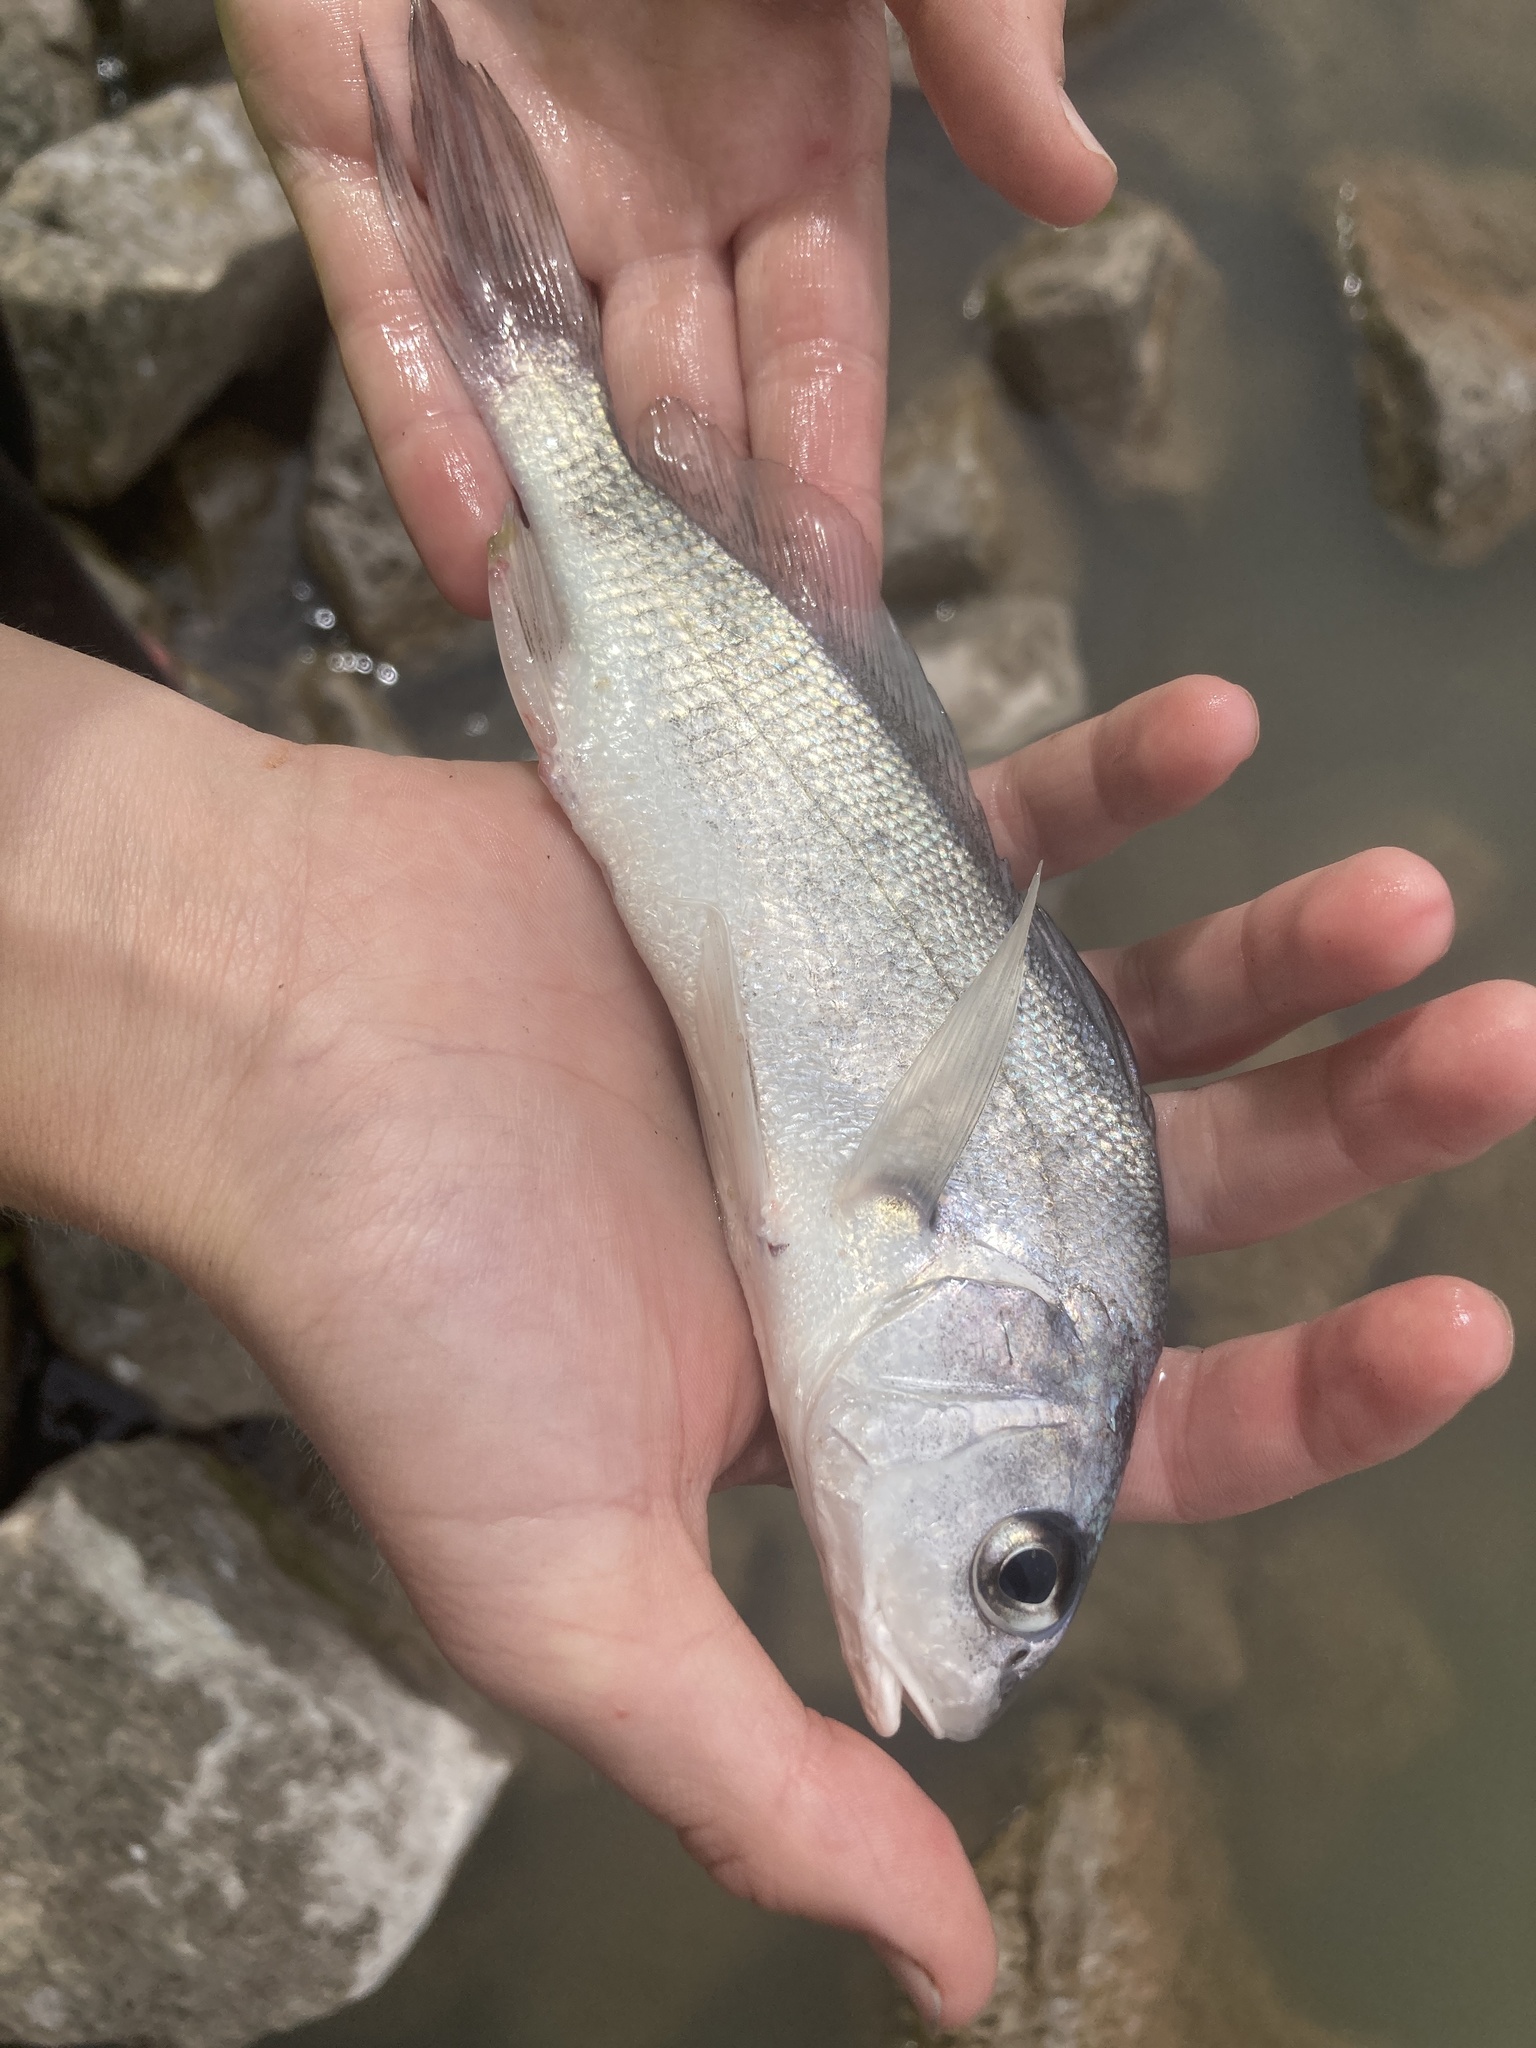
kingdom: Animalia
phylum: Chordata
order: Perciformes
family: Sciaenidae
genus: Aplodinotus
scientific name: Aplodinotus grunniens
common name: Freshwater drum
